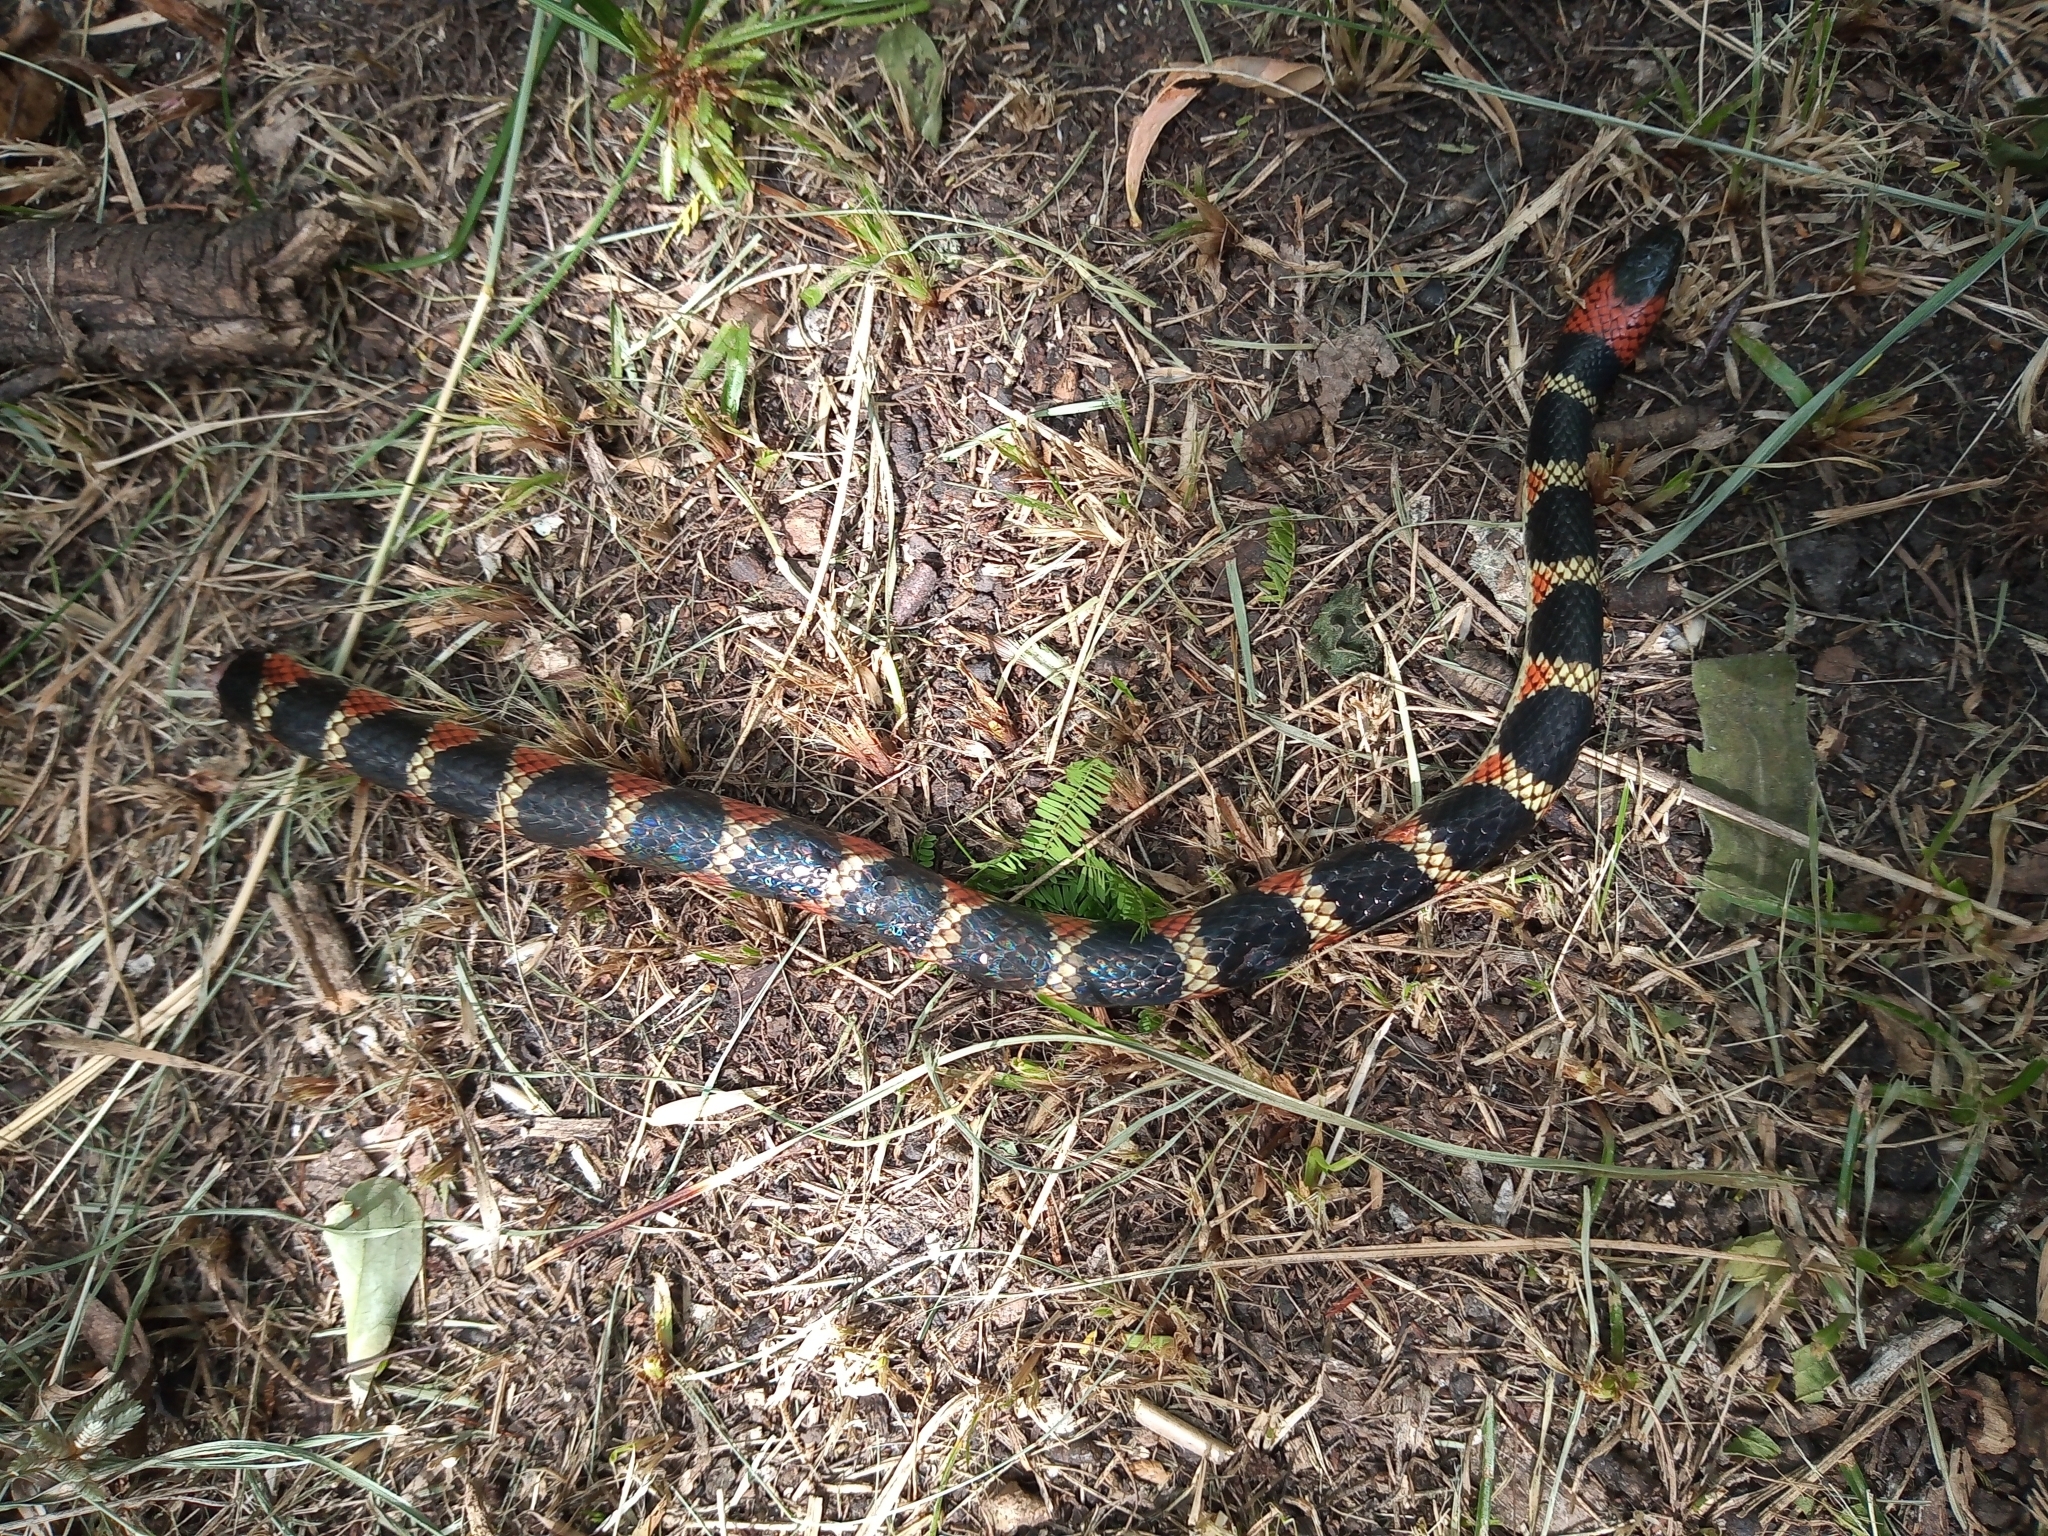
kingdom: Animalia
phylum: Chordata
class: Squamata
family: Colubridae
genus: Oxyrhopus
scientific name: Oxyrhopus rhombifer
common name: Amazon false coral snake
